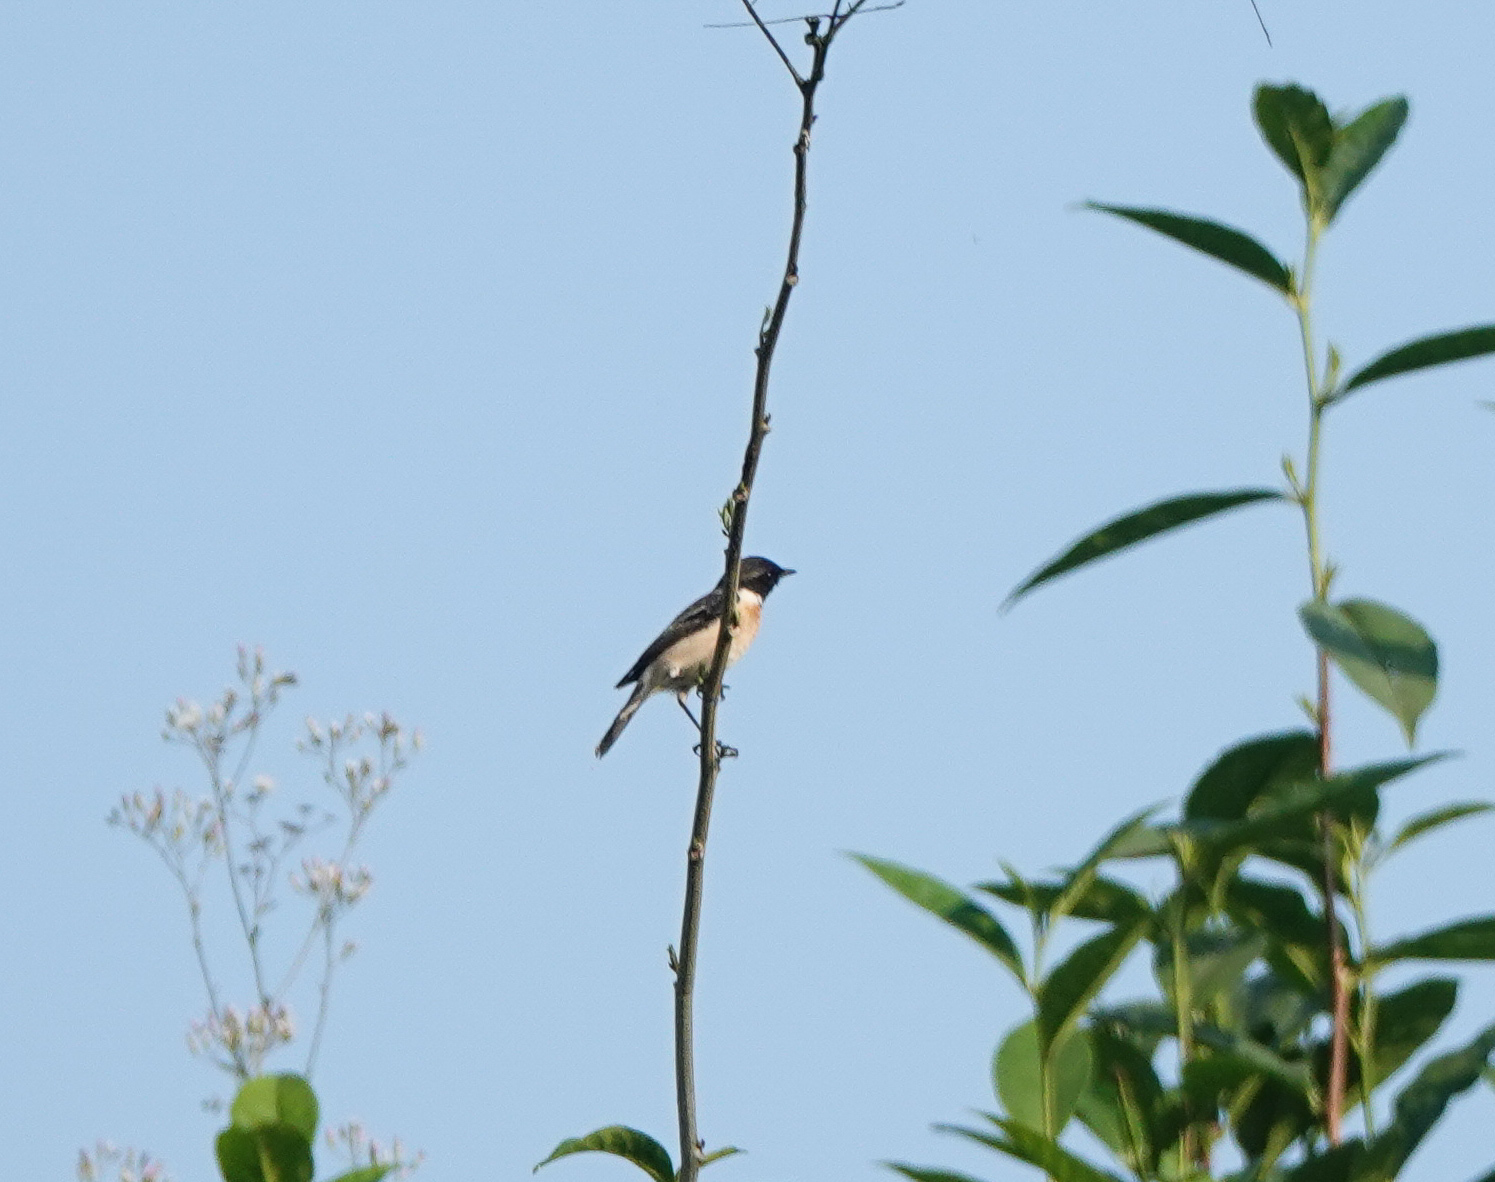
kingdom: Animalia
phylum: Chordata
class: Aves
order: Passeriformes
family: Muscicapidae
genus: Saxicola
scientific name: Saxicola maurus
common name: Siberian stonechat
